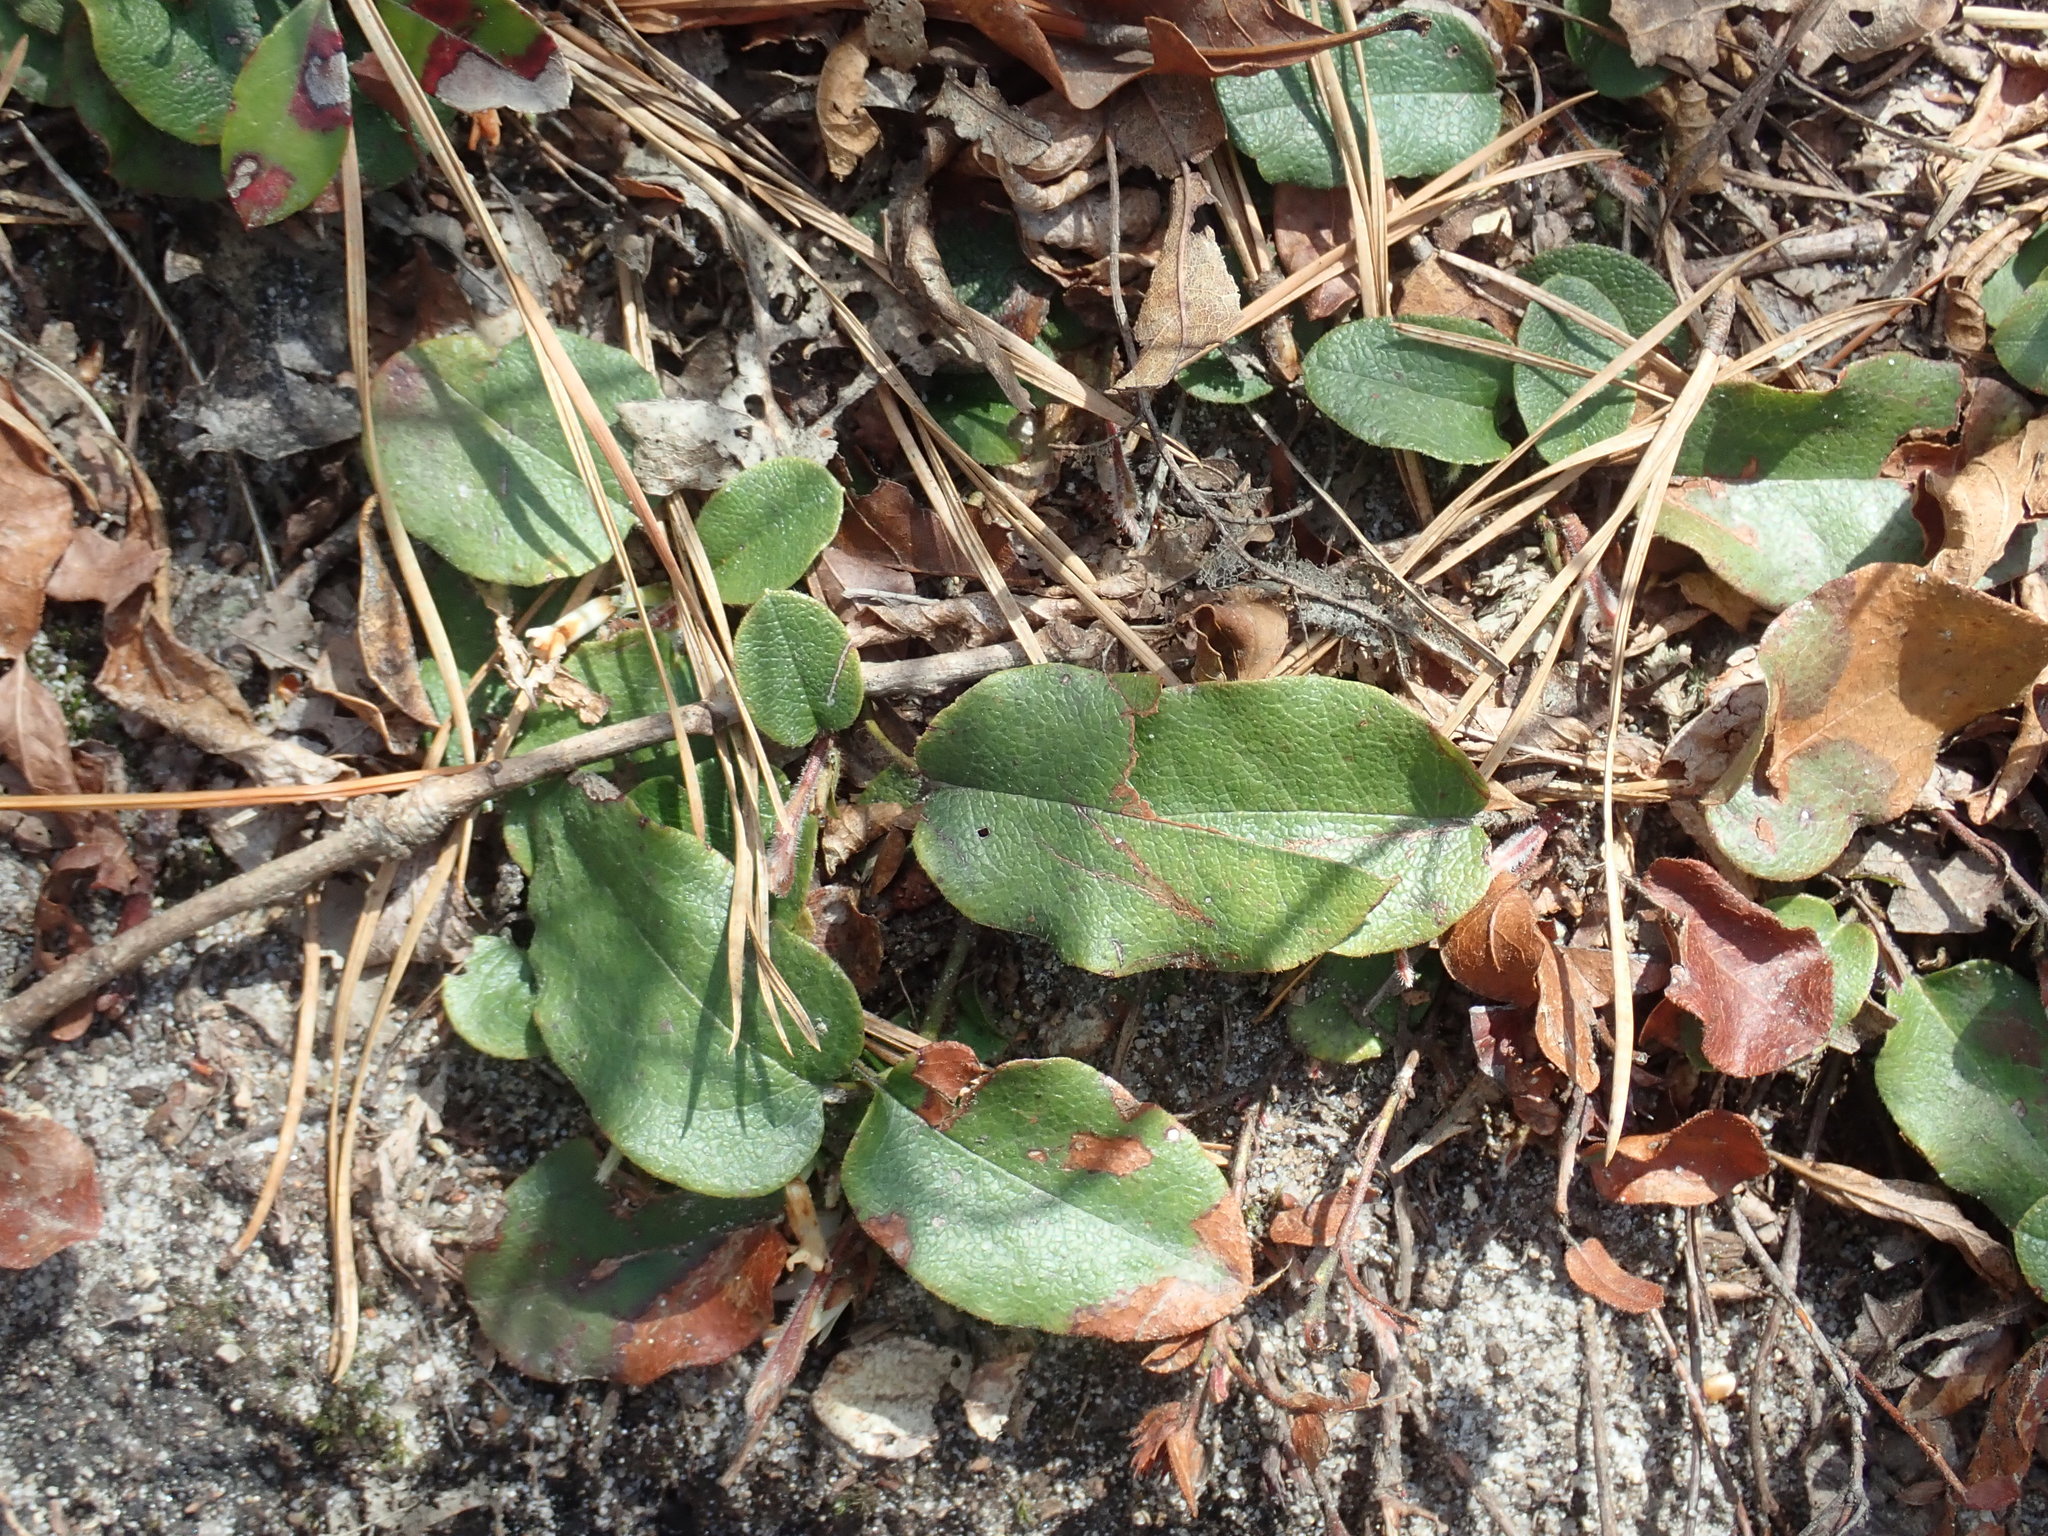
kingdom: Plantae
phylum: Tracheophyta
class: Magnoliopsida
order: Ericales
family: Ericaceae
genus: Epigaea
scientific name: Epigaea repens
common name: Gravelroot
